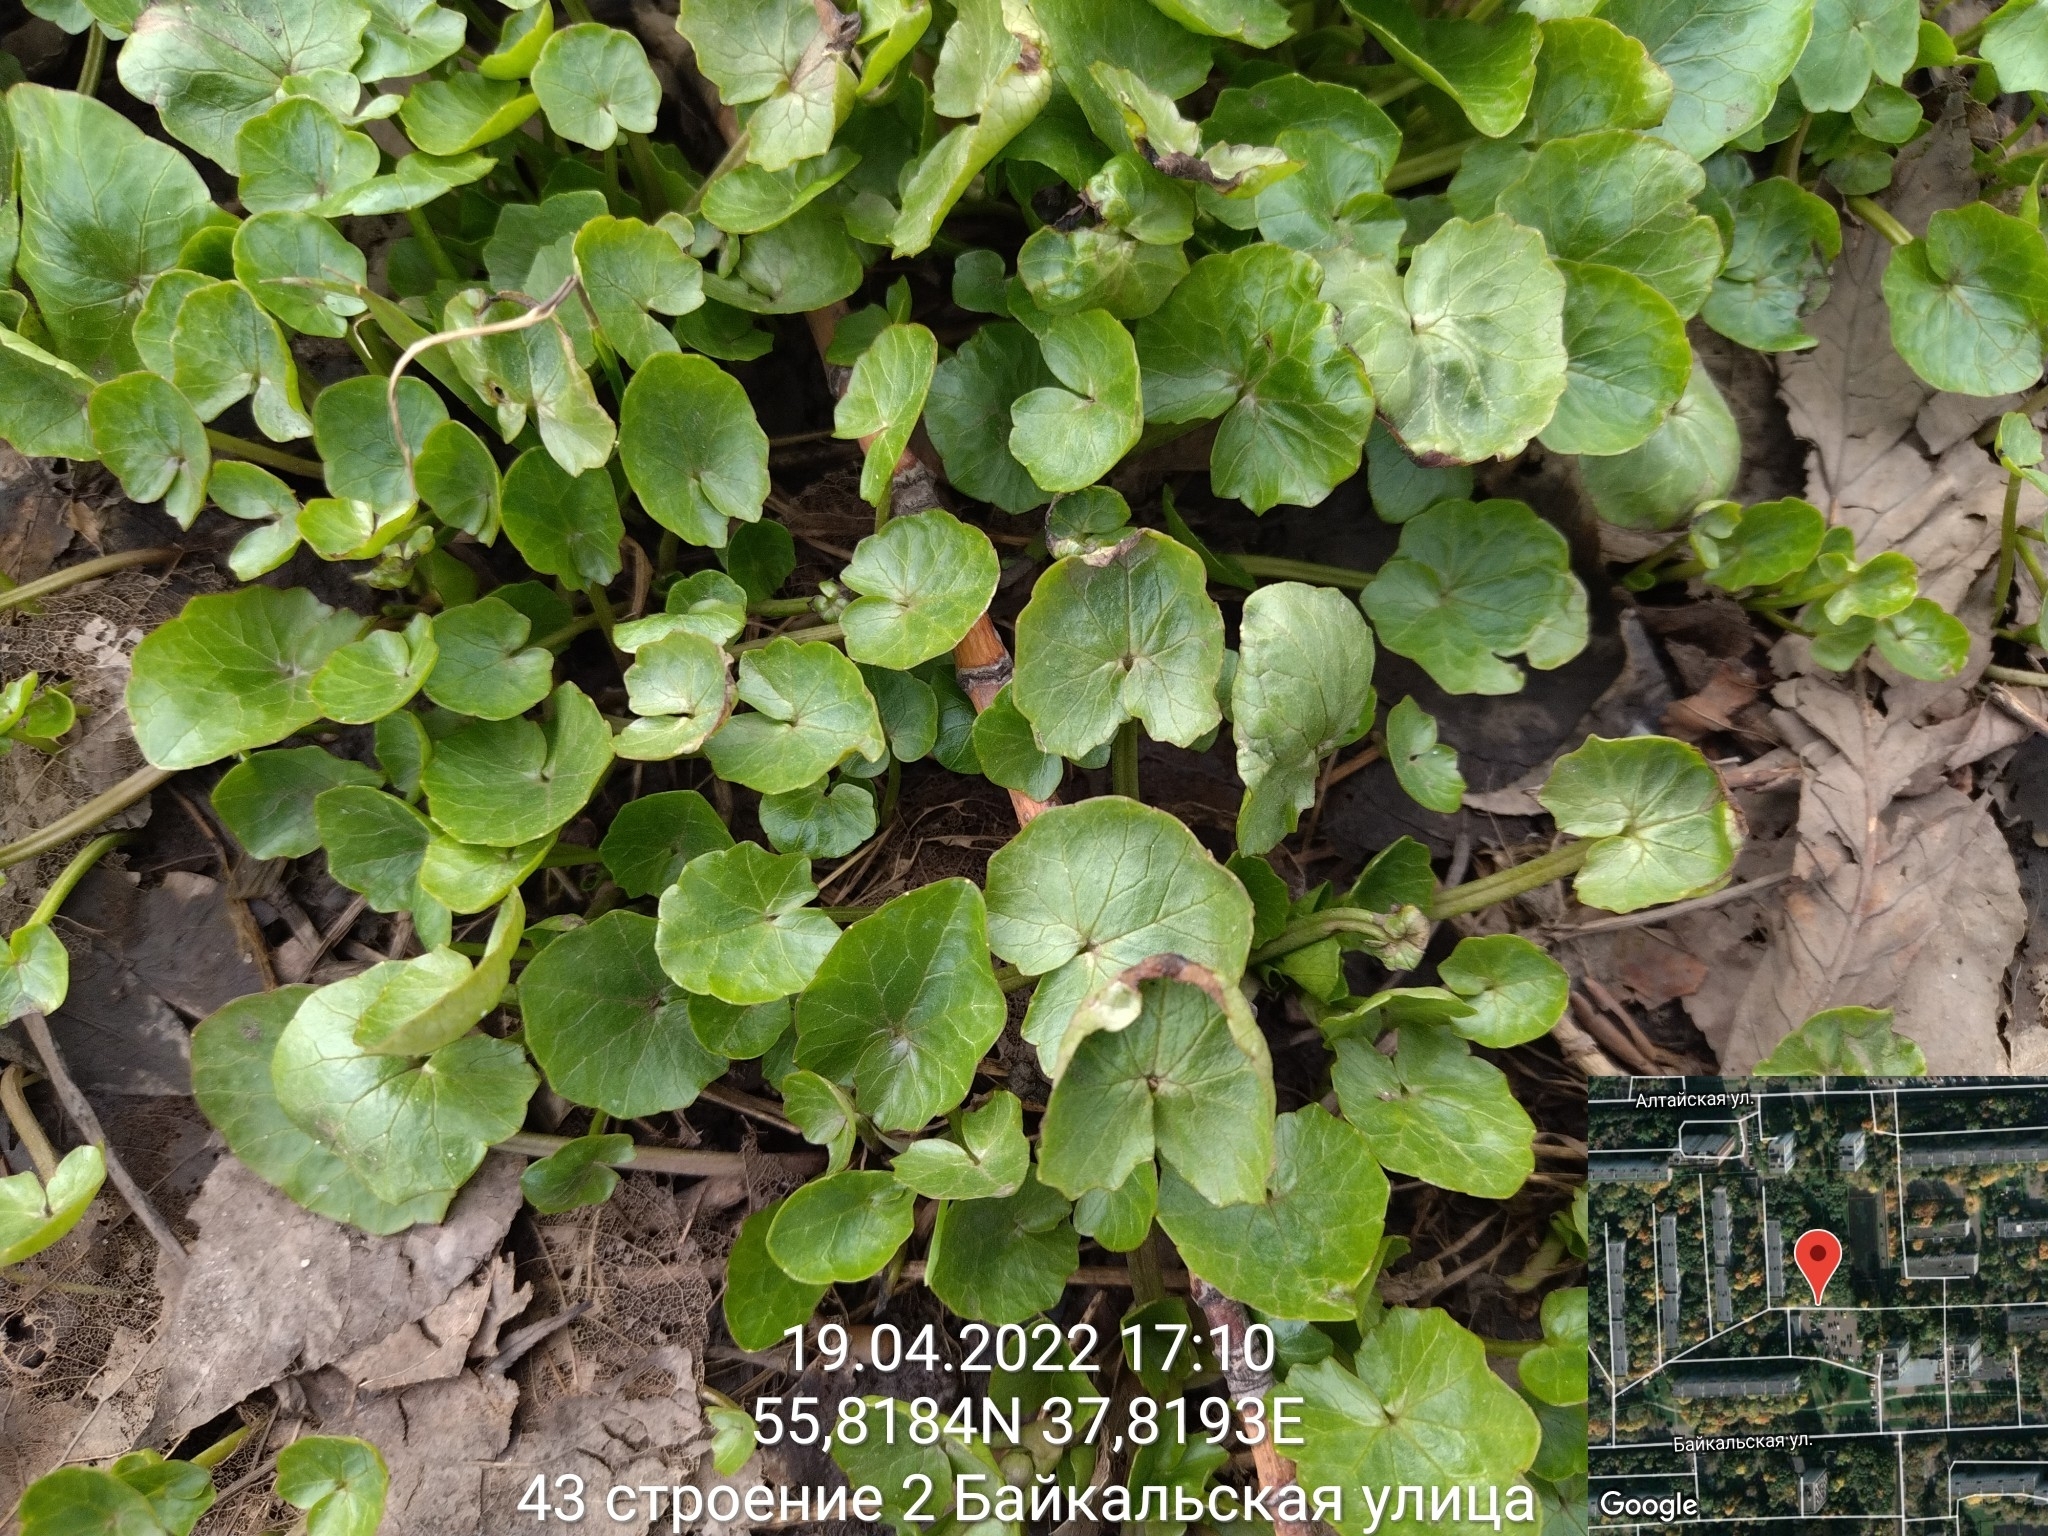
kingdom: Plantae
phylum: Tracheophyta
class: Magnoliopsida
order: Ranunculales
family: Ranunculaceae
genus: Ficaria
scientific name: Ficaria verna
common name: Lesser celandine
